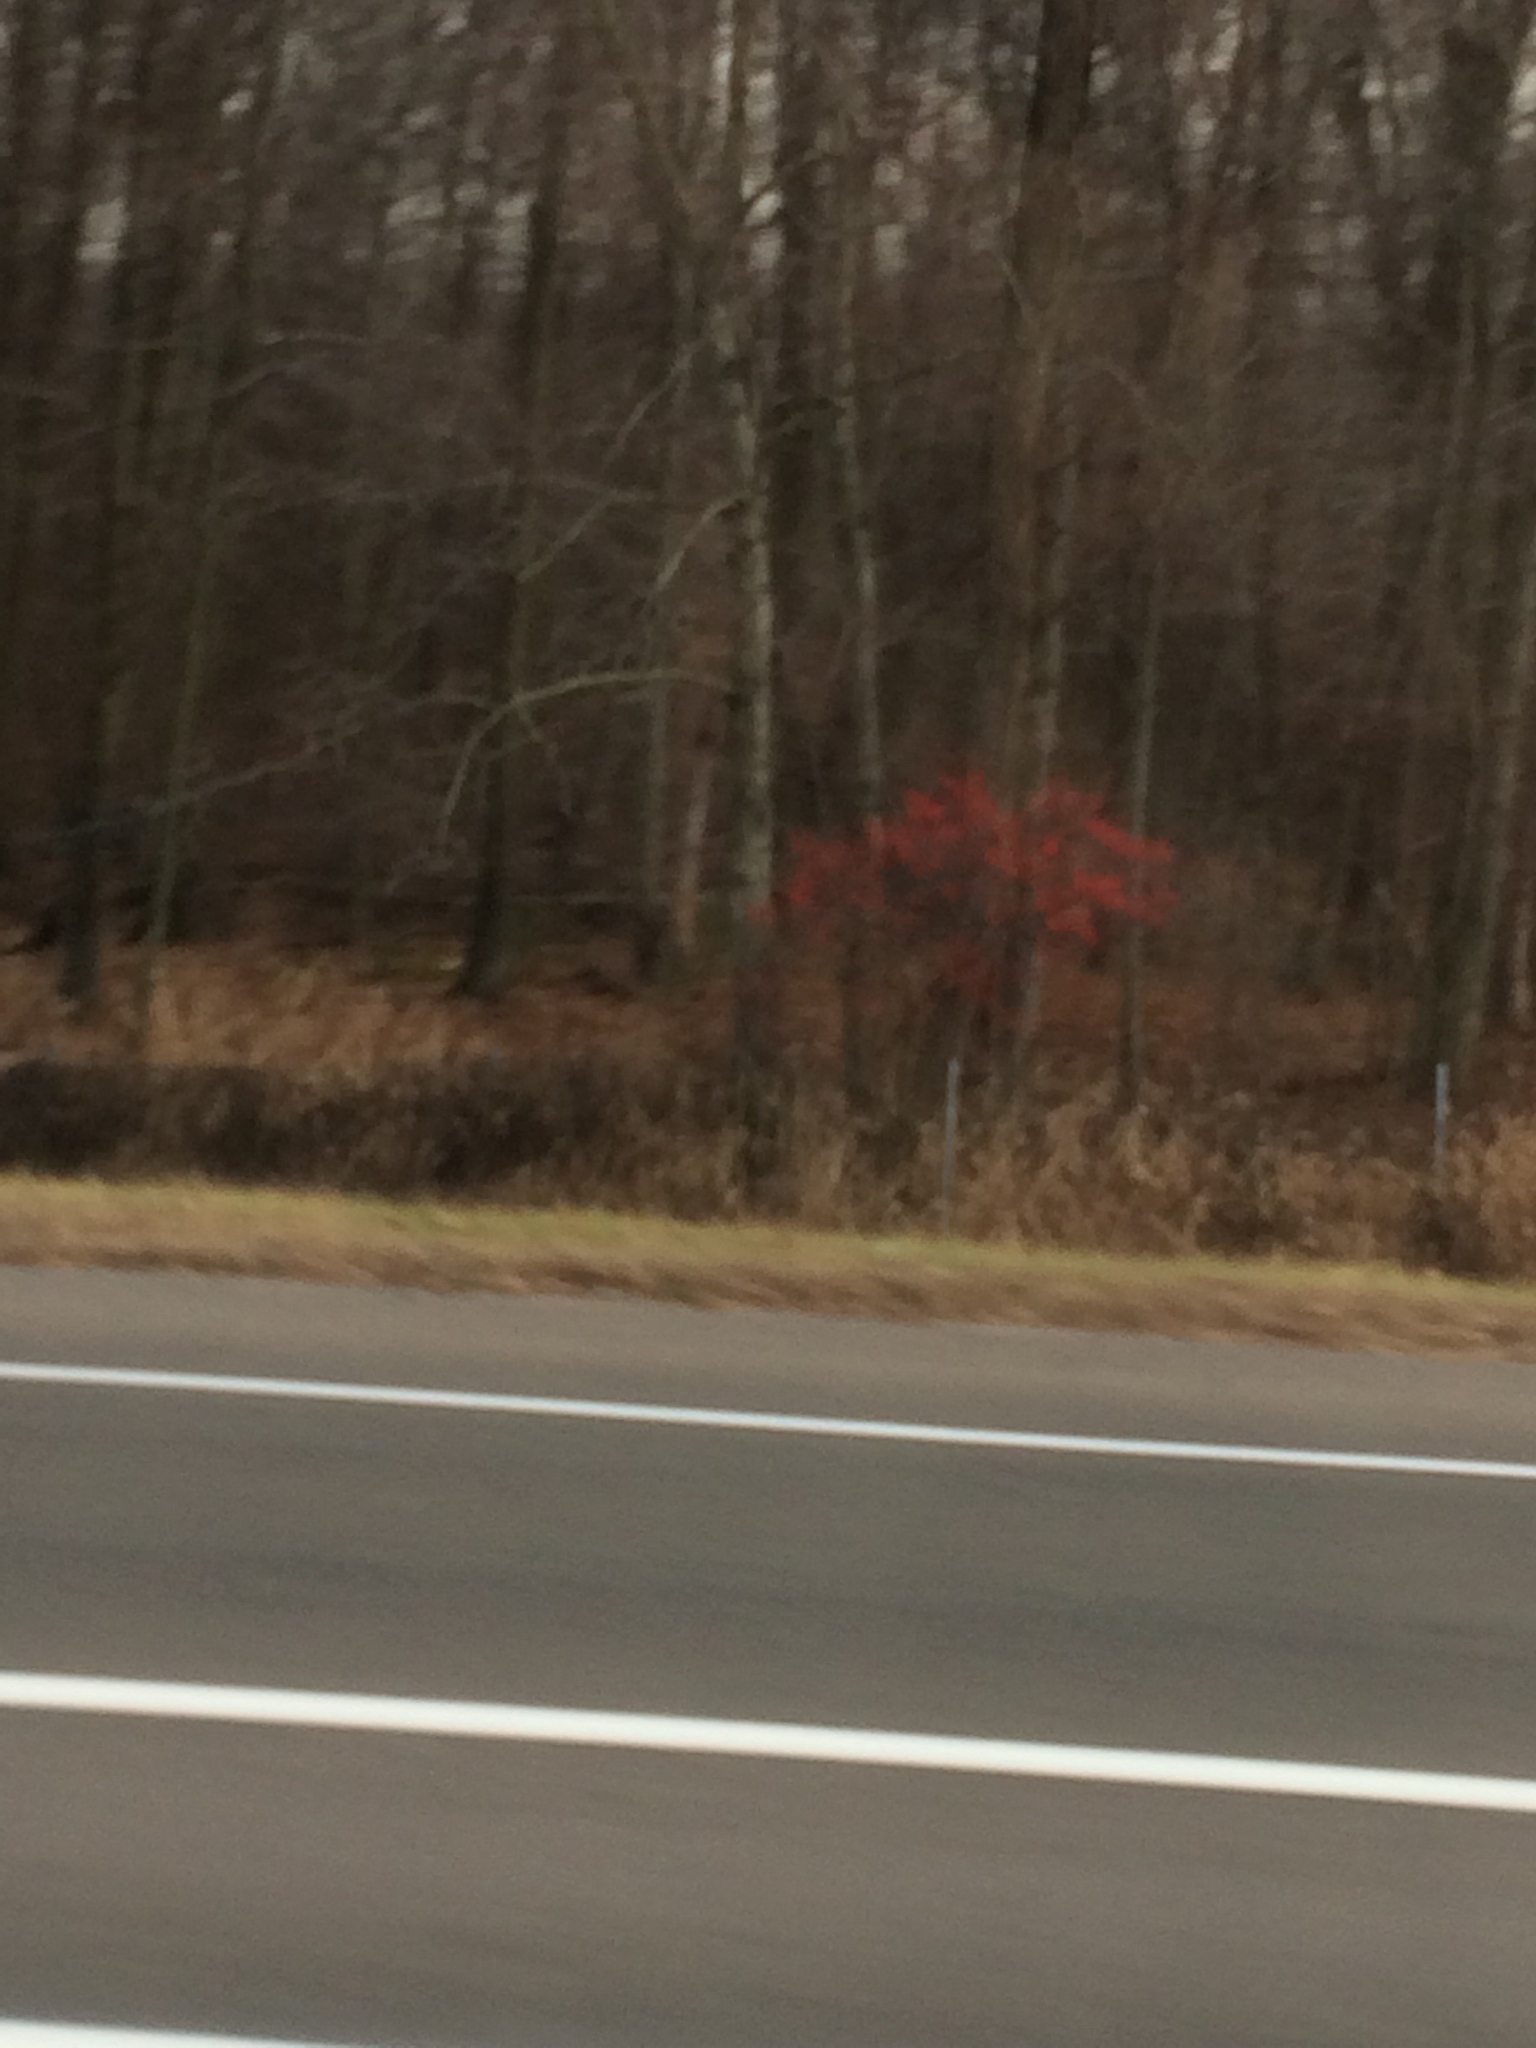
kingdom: Plantae
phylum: Tracheophyta
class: Magnoliopsida
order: Aquifoliales
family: Aquifoliaceae
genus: Ilex
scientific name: Ilex verticillata
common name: Virginia winterberry
